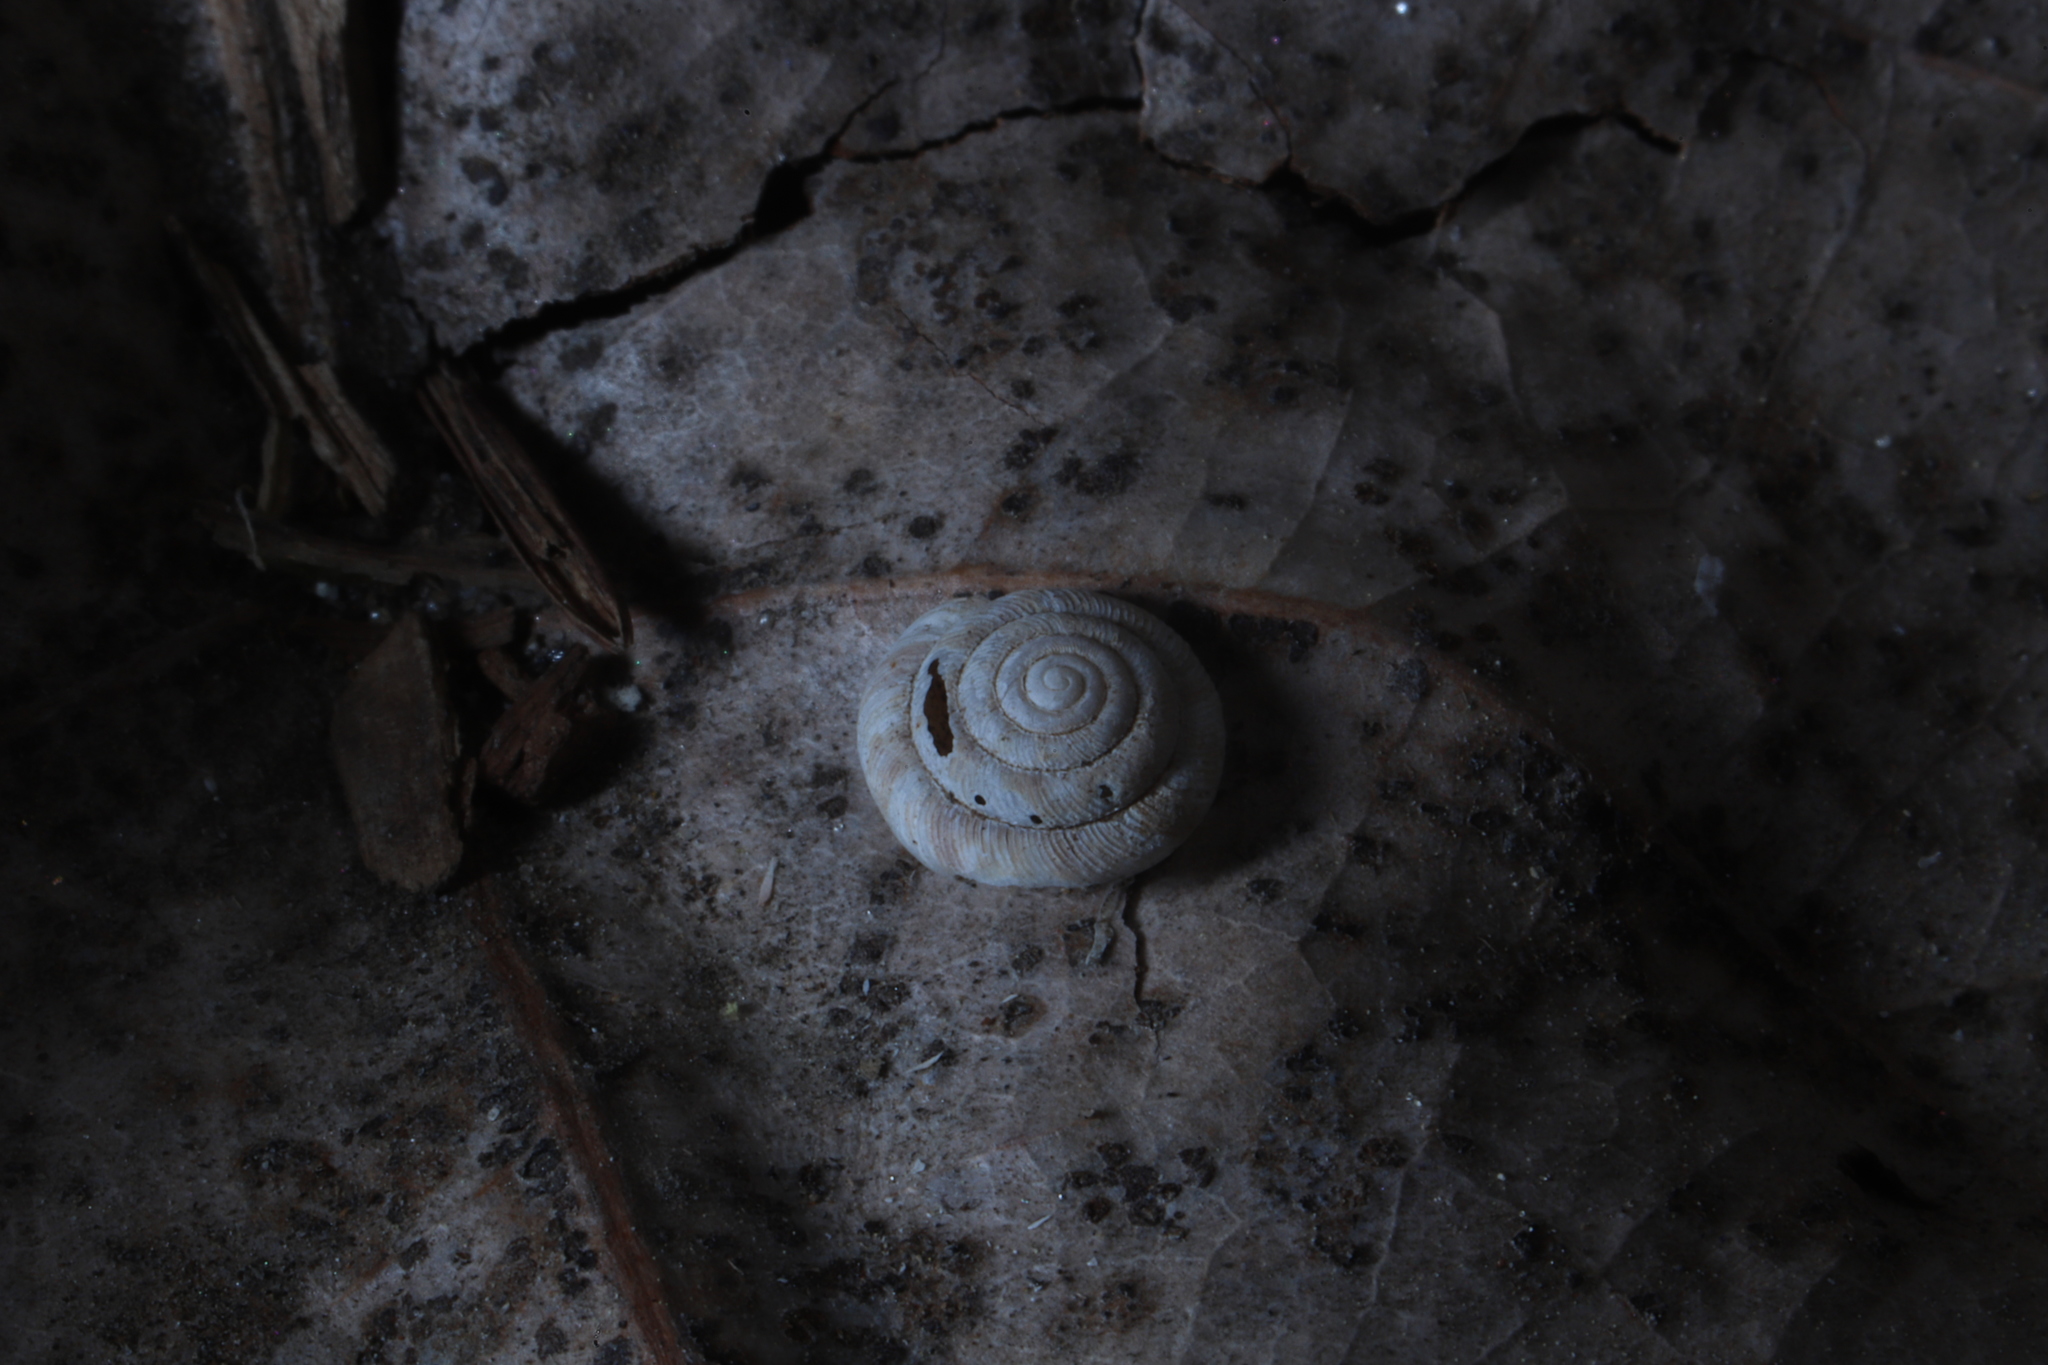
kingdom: Animalia
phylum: Mollusca
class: Gastropoda
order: Stylommatophora
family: Discidae
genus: Discus
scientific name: Discus rotundatus
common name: Rounded snail
